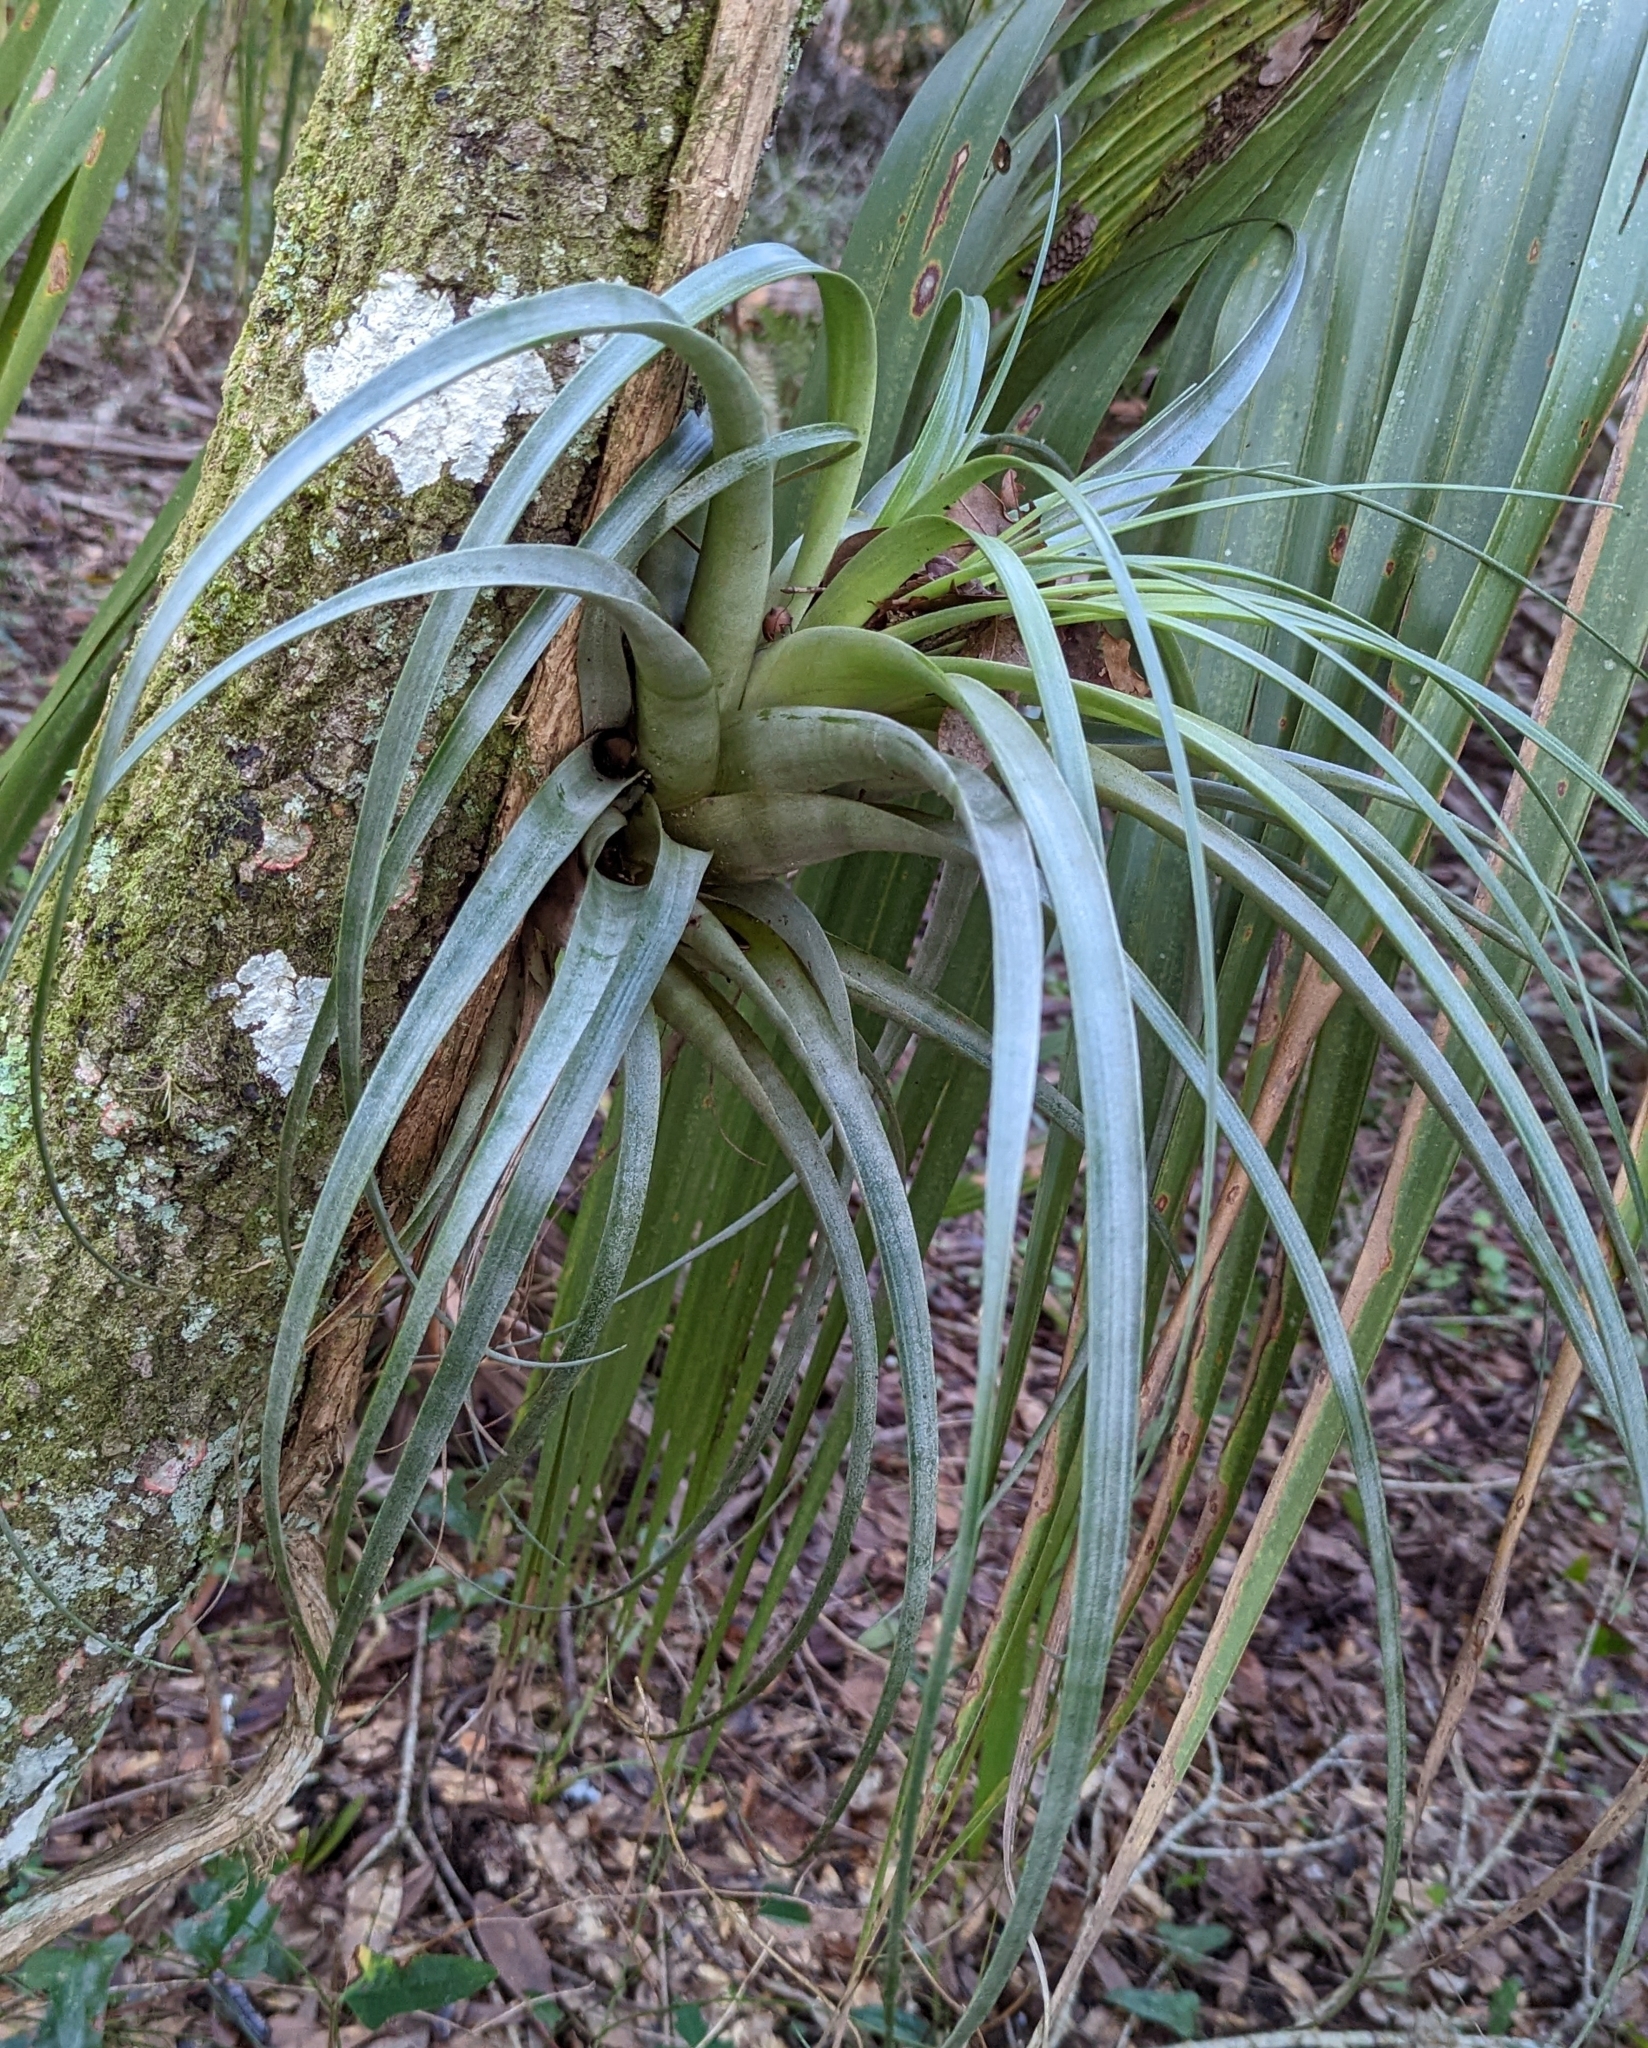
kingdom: Plantae
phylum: Tracheophyta
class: Liliopsida
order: Poales
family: Bromeliaceae
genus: Tillandsia
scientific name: Tillandsia utriculata
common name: Wild pine
